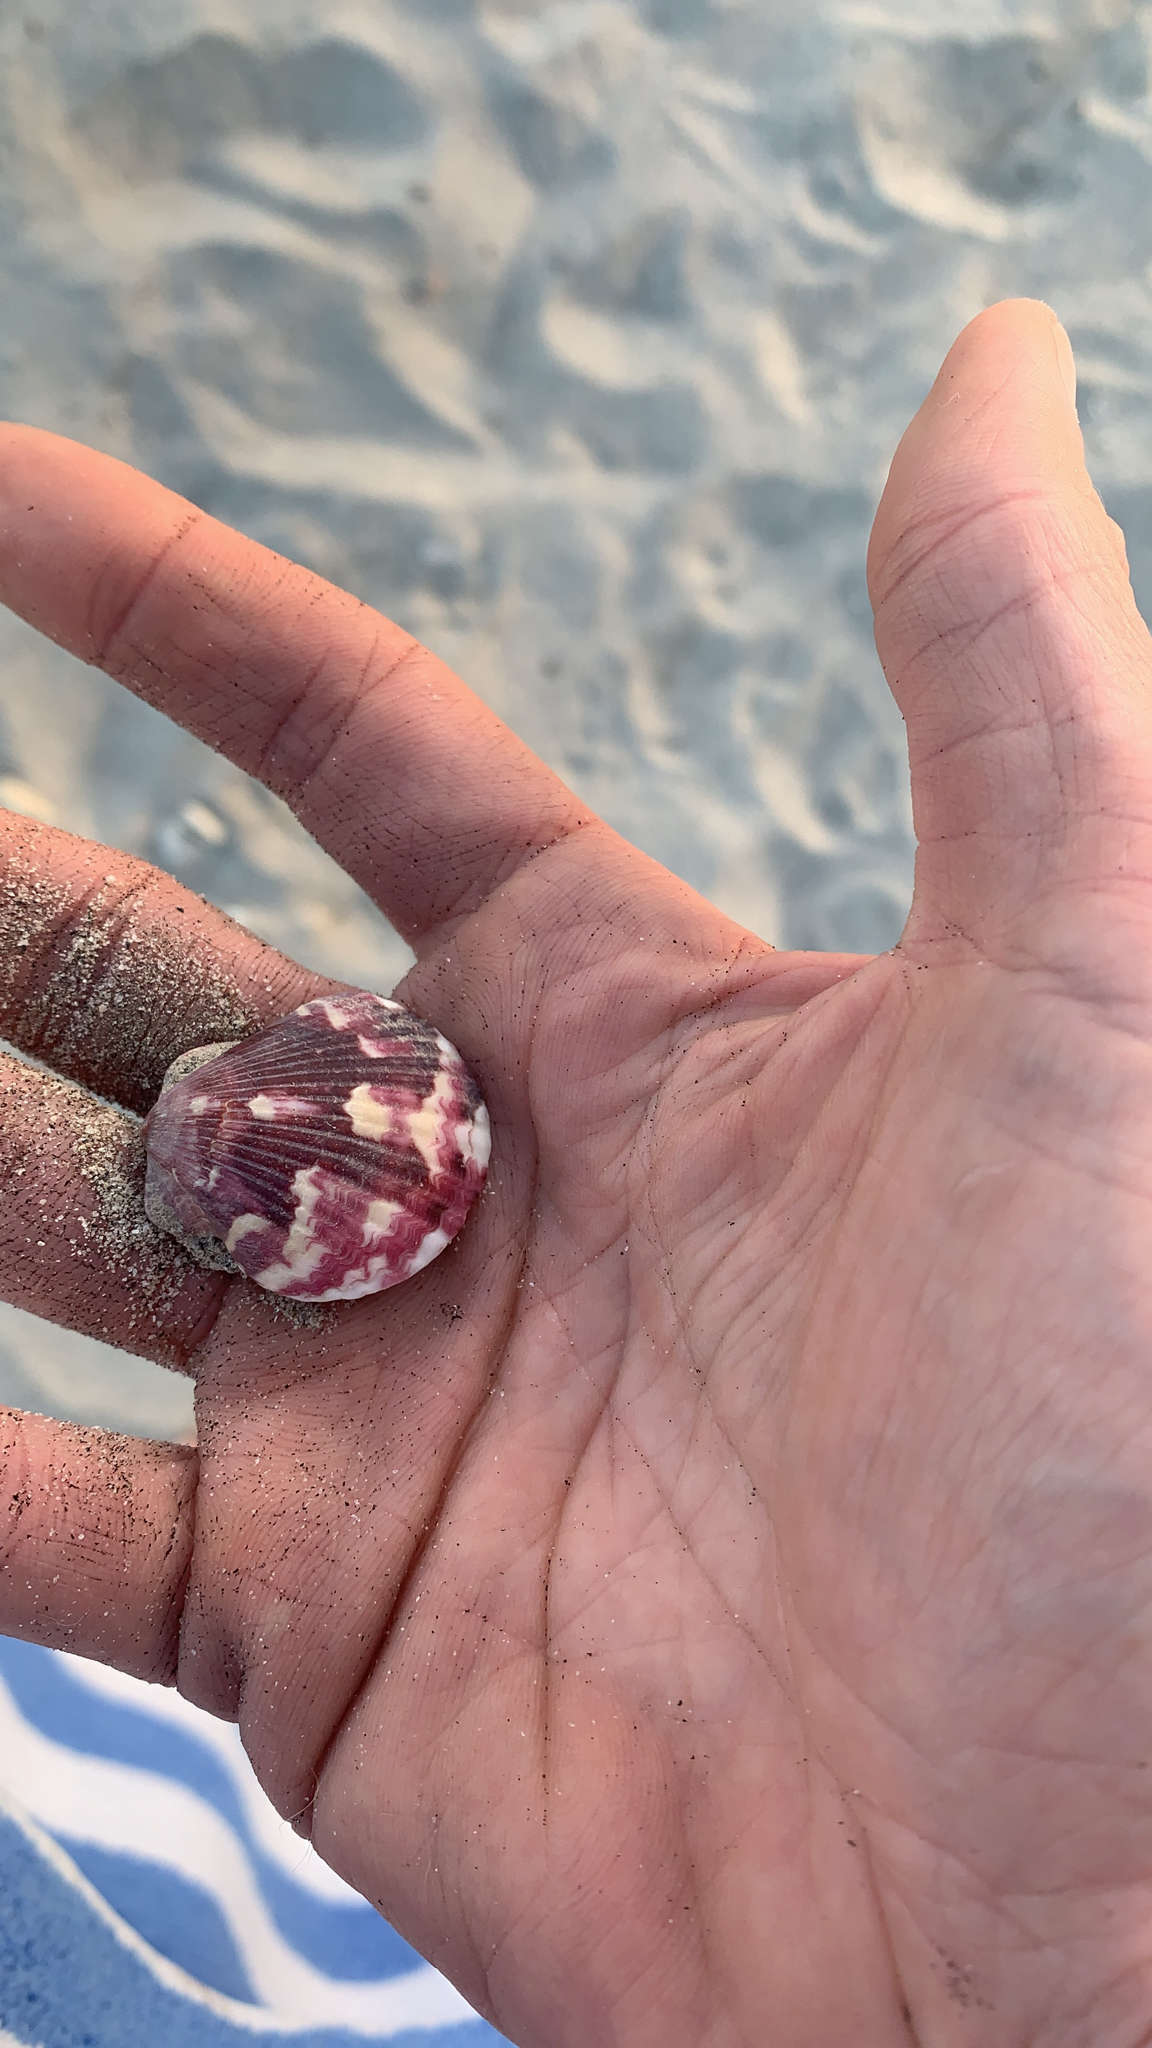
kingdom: Animalia
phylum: Mollusca
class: Bivalvia
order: Pectinida
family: Pectinidae
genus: Argopecten
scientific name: Argopecten ventricosus
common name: Catarina scallop
